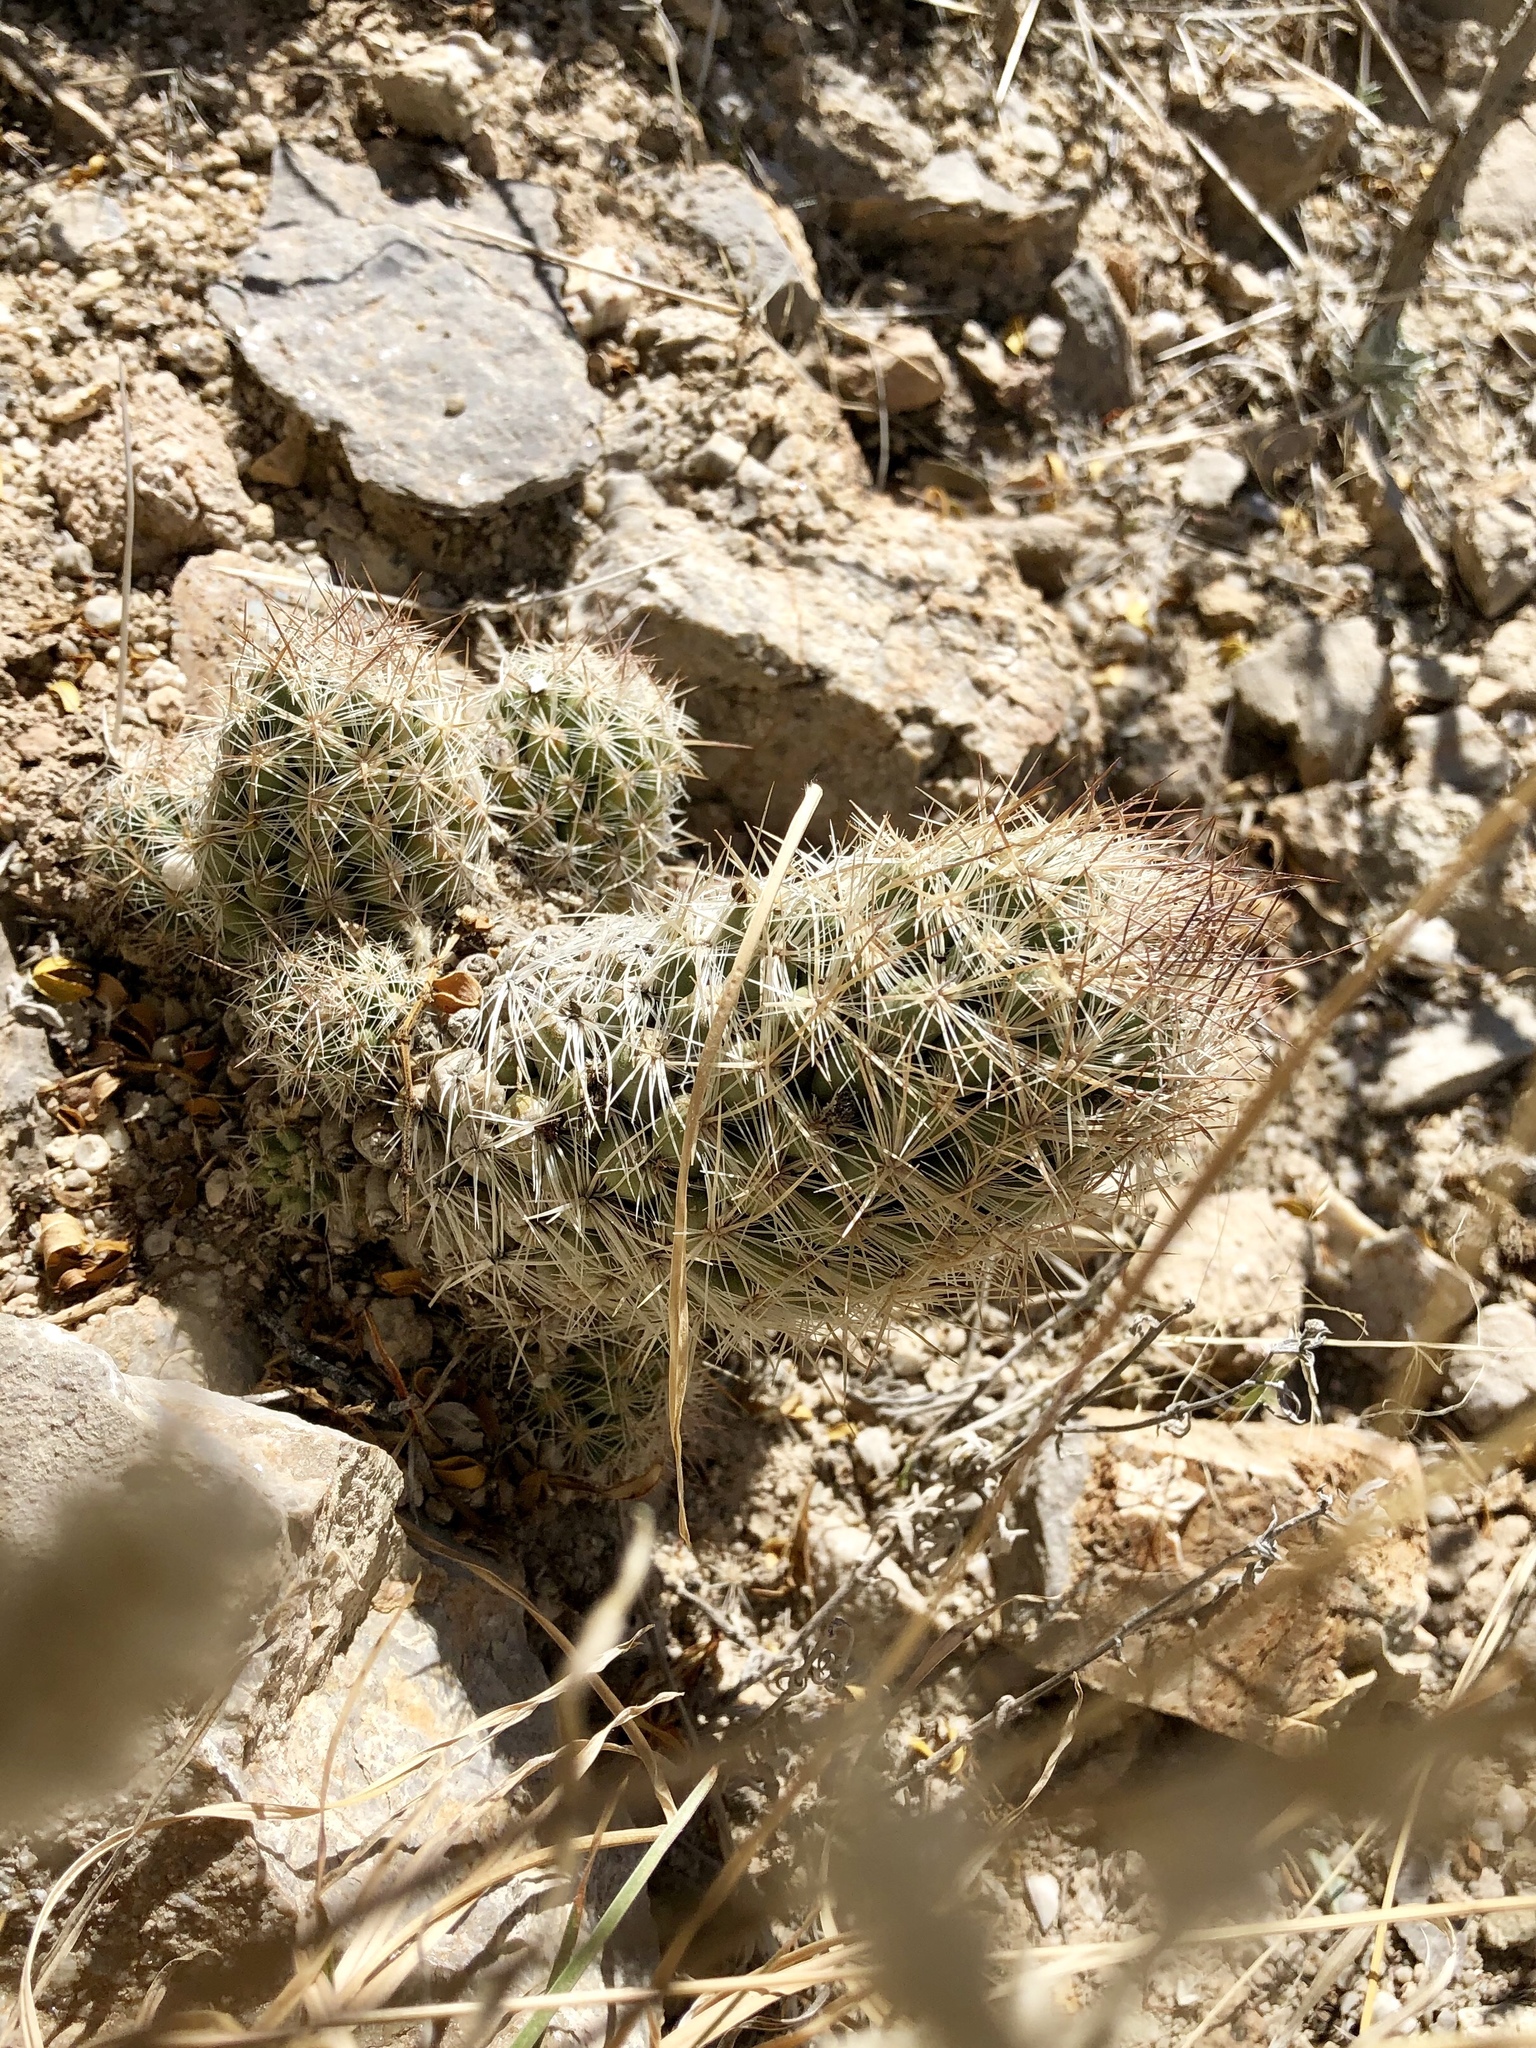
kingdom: Plantae
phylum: Tracheophyta
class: Magnoliopsida
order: Caryophyllales
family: Cactaceae
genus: Pelecyphora
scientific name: Pelecyphora tuberculosa
